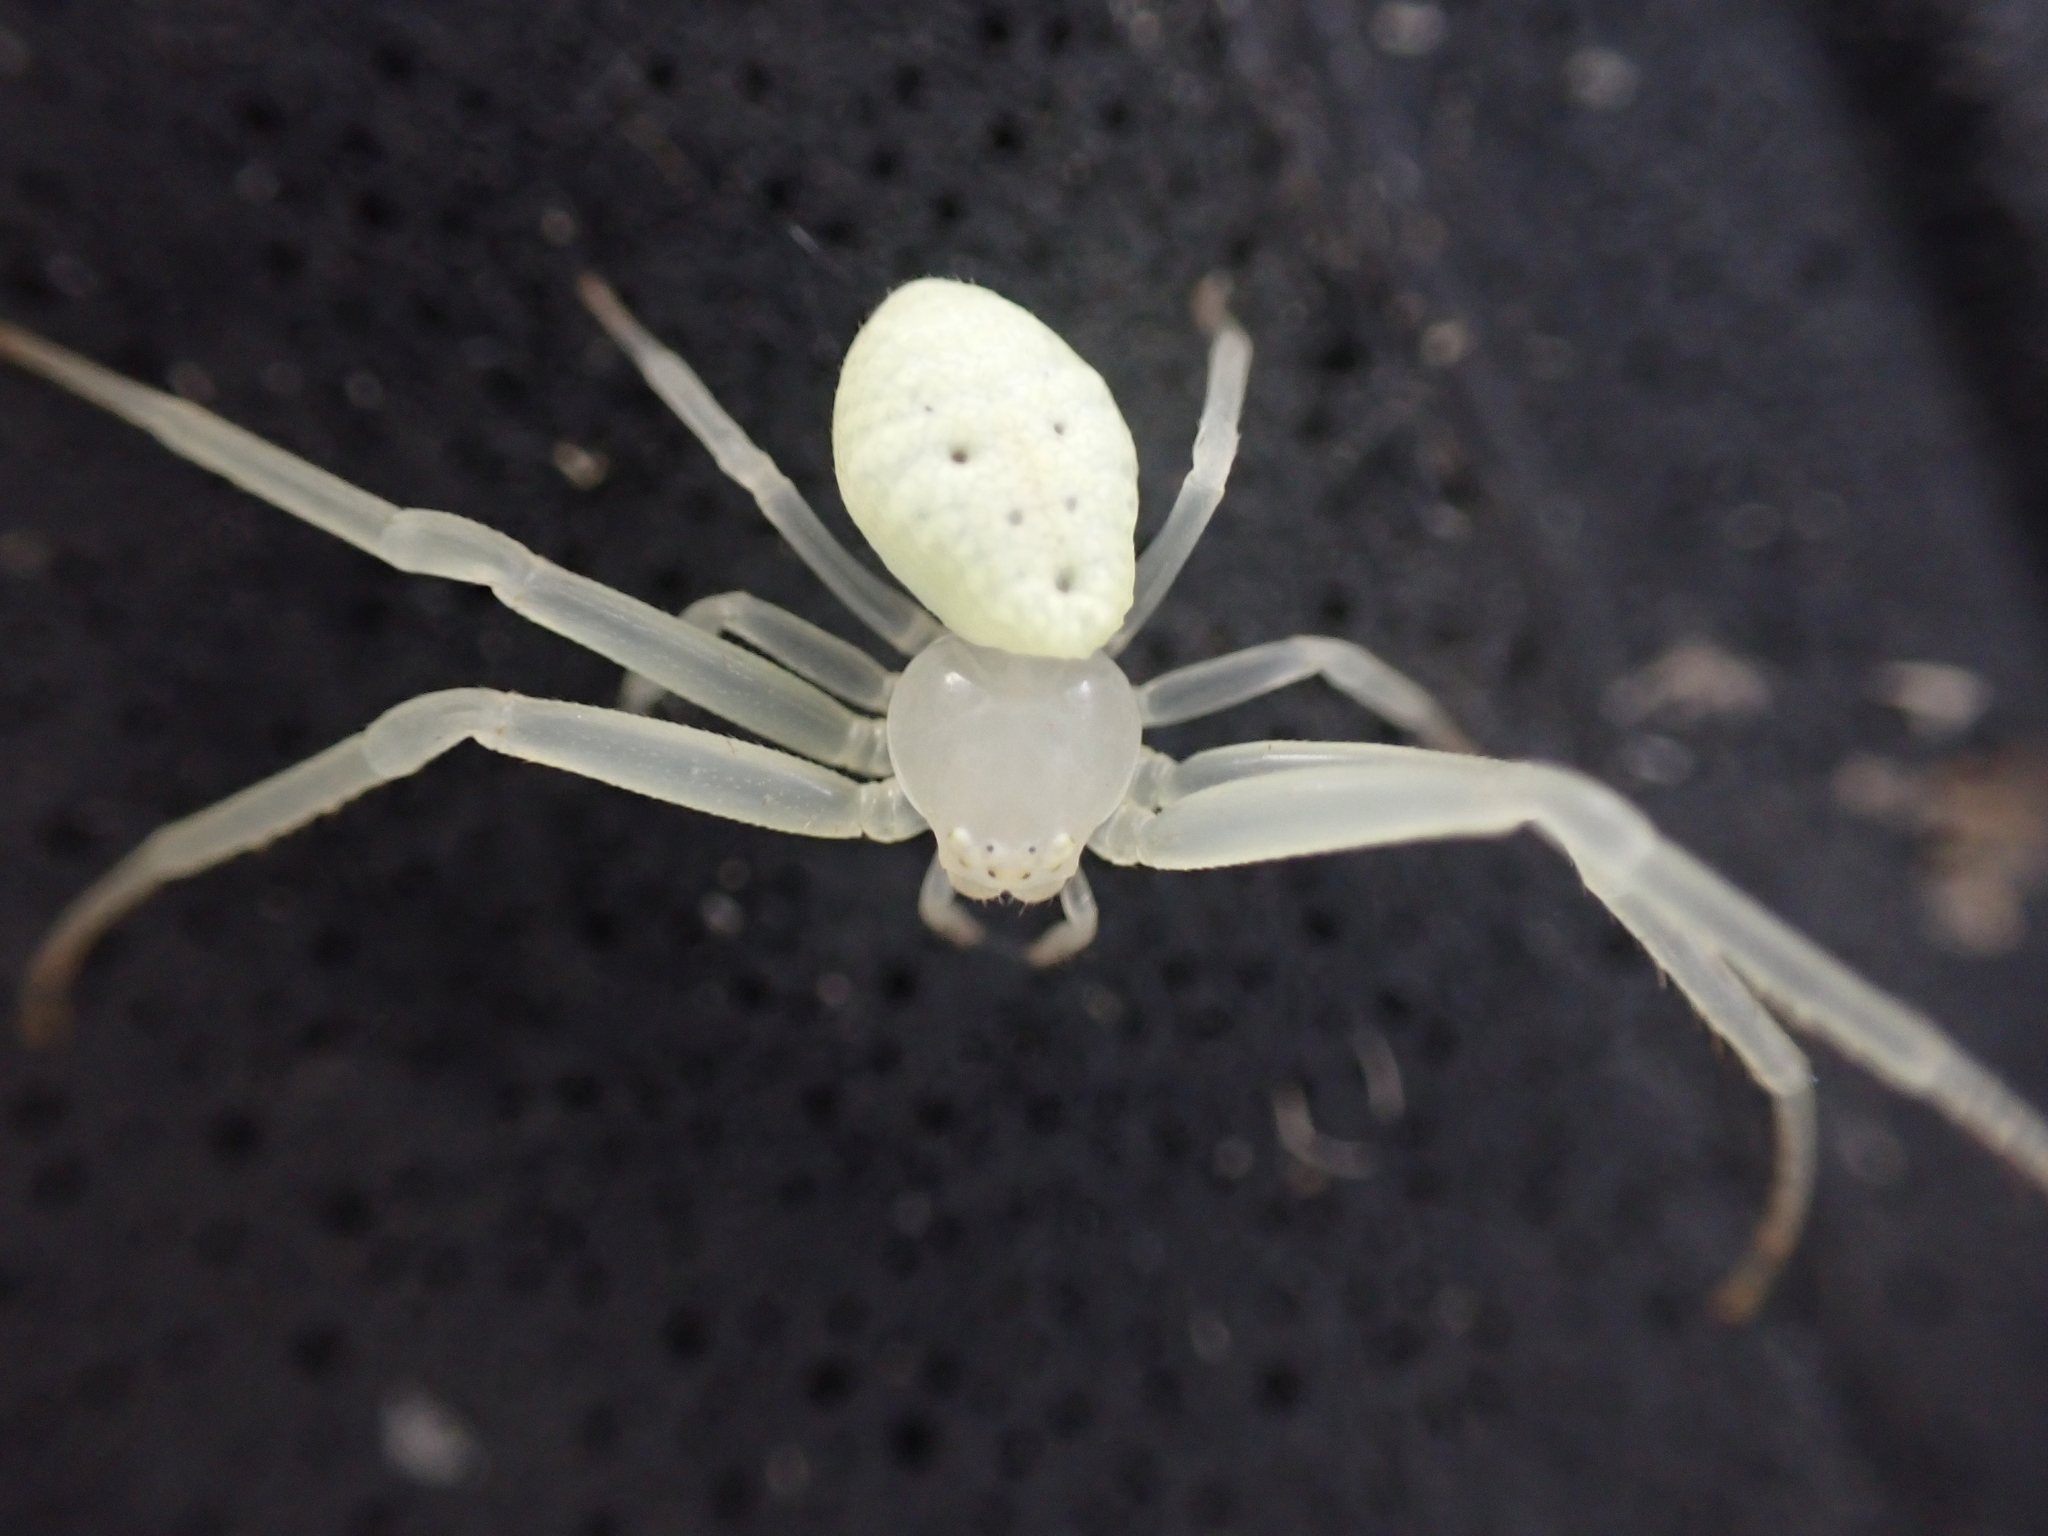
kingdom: Animalia
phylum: Arthropoda
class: Arachnida
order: Araneae
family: Thomisidae
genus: Misumessus
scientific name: Misumessus oblongus
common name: American green crab spider
